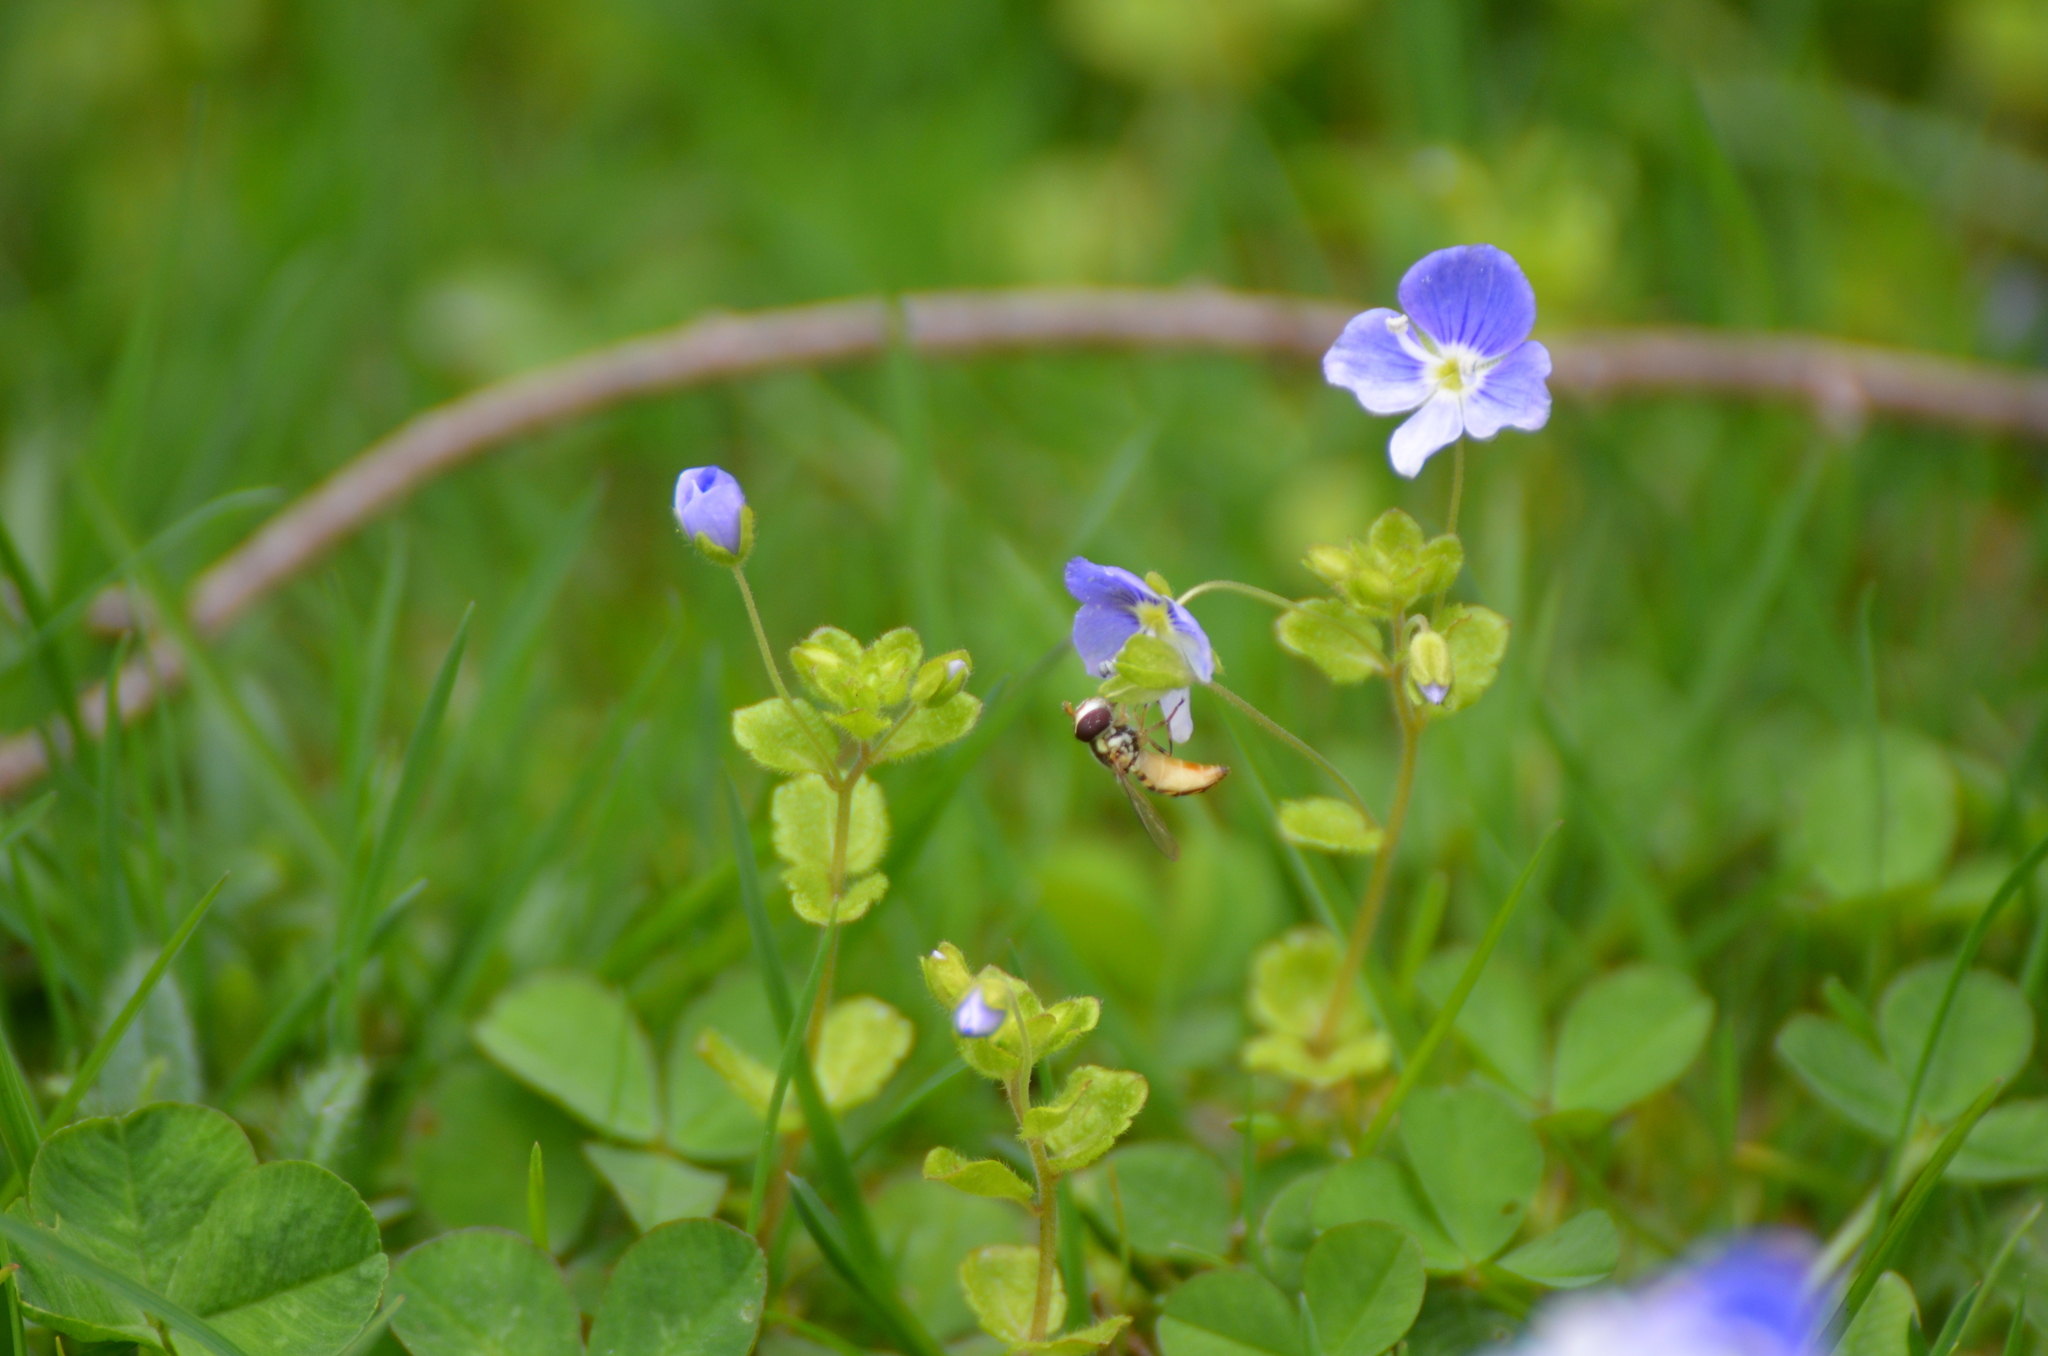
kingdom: Animalia
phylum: Arthropoda
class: Insecta
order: Diptera
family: Syrphidae
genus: Allograpta
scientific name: Allograpta obliqua
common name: Common oblique syrphid
